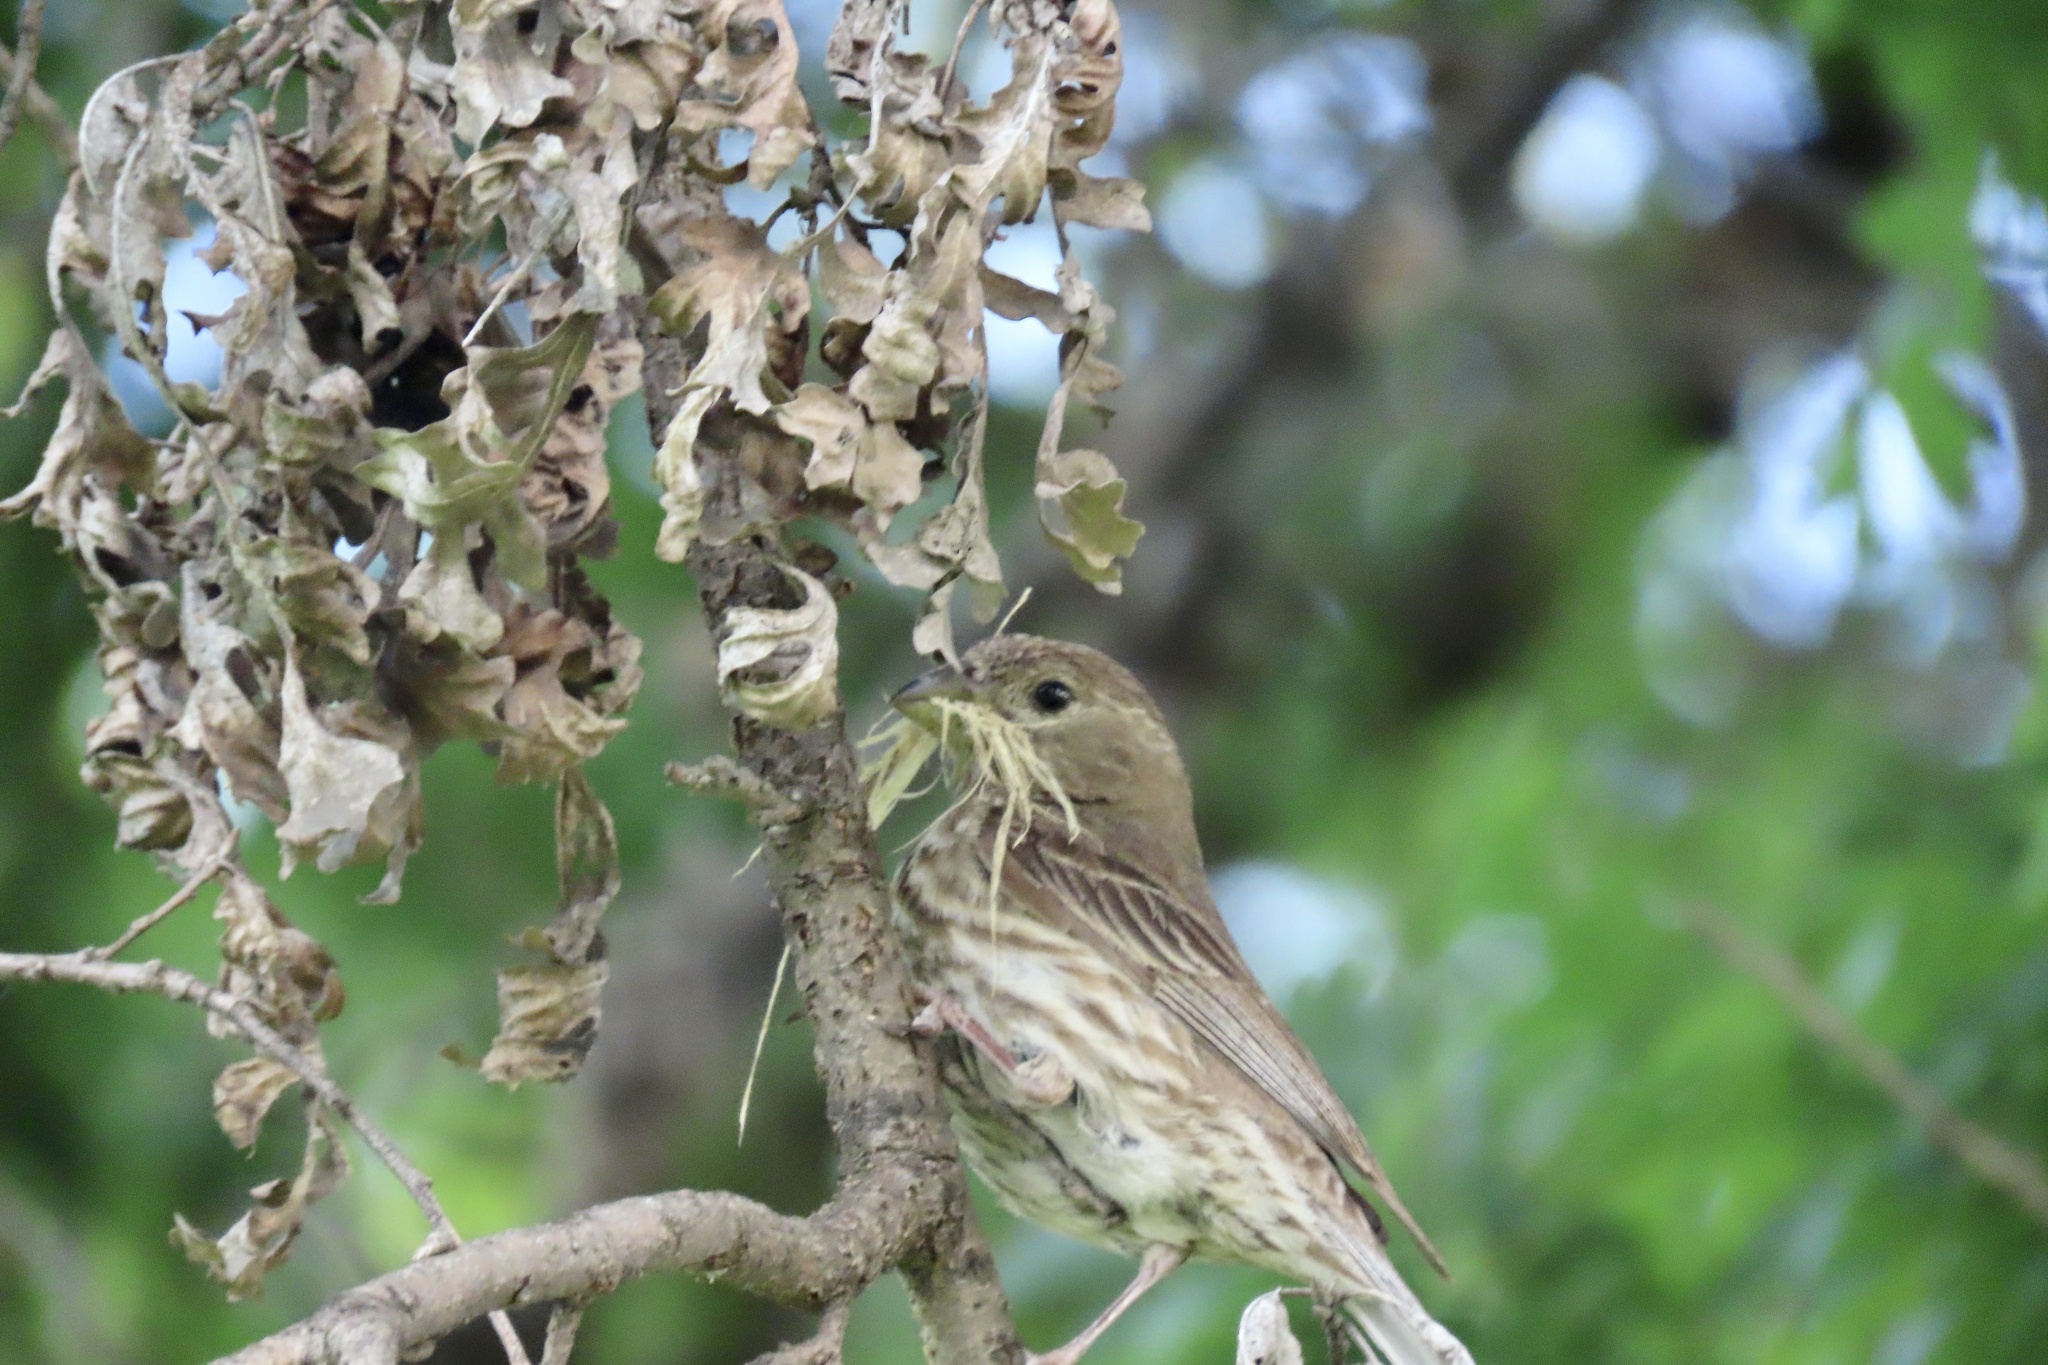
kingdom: Animalia
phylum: Chordata
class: Aves
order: Passeriformes
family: Fringillidae
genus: Haemorhous
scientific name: Haemorhous mexicanus
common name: House finch
